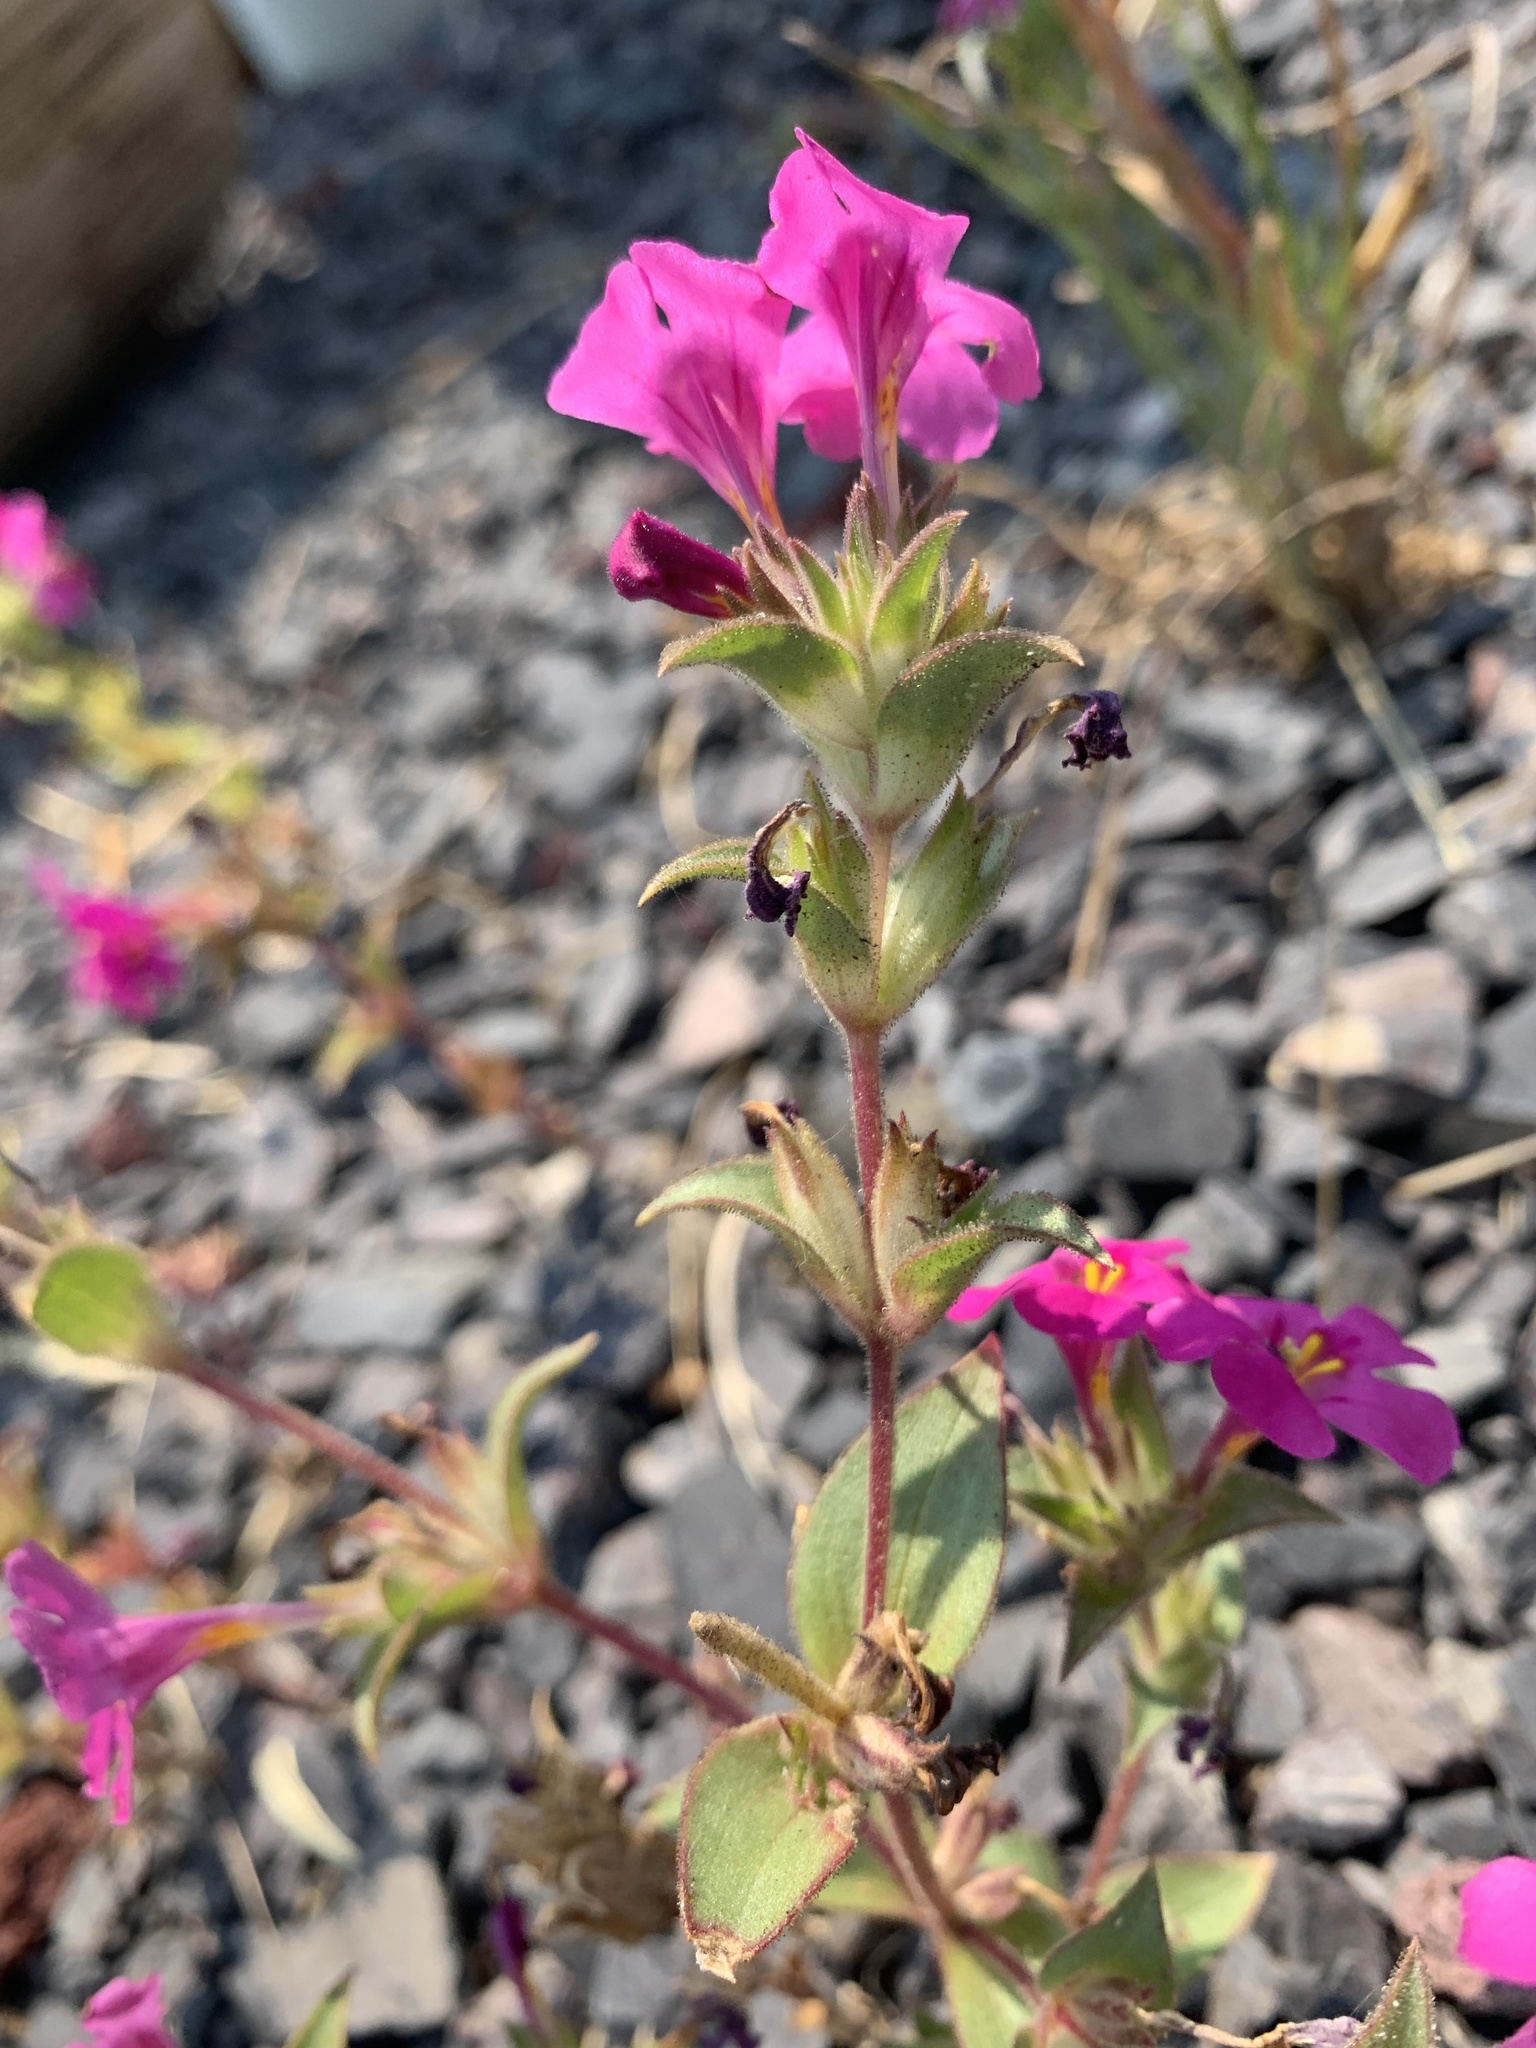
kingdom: Plantae
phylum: Tracheophyta
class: Magnoliopsida
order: Lamiales
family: Phrymaceae
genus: Diplacus
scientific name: Diplacus cusickioides
